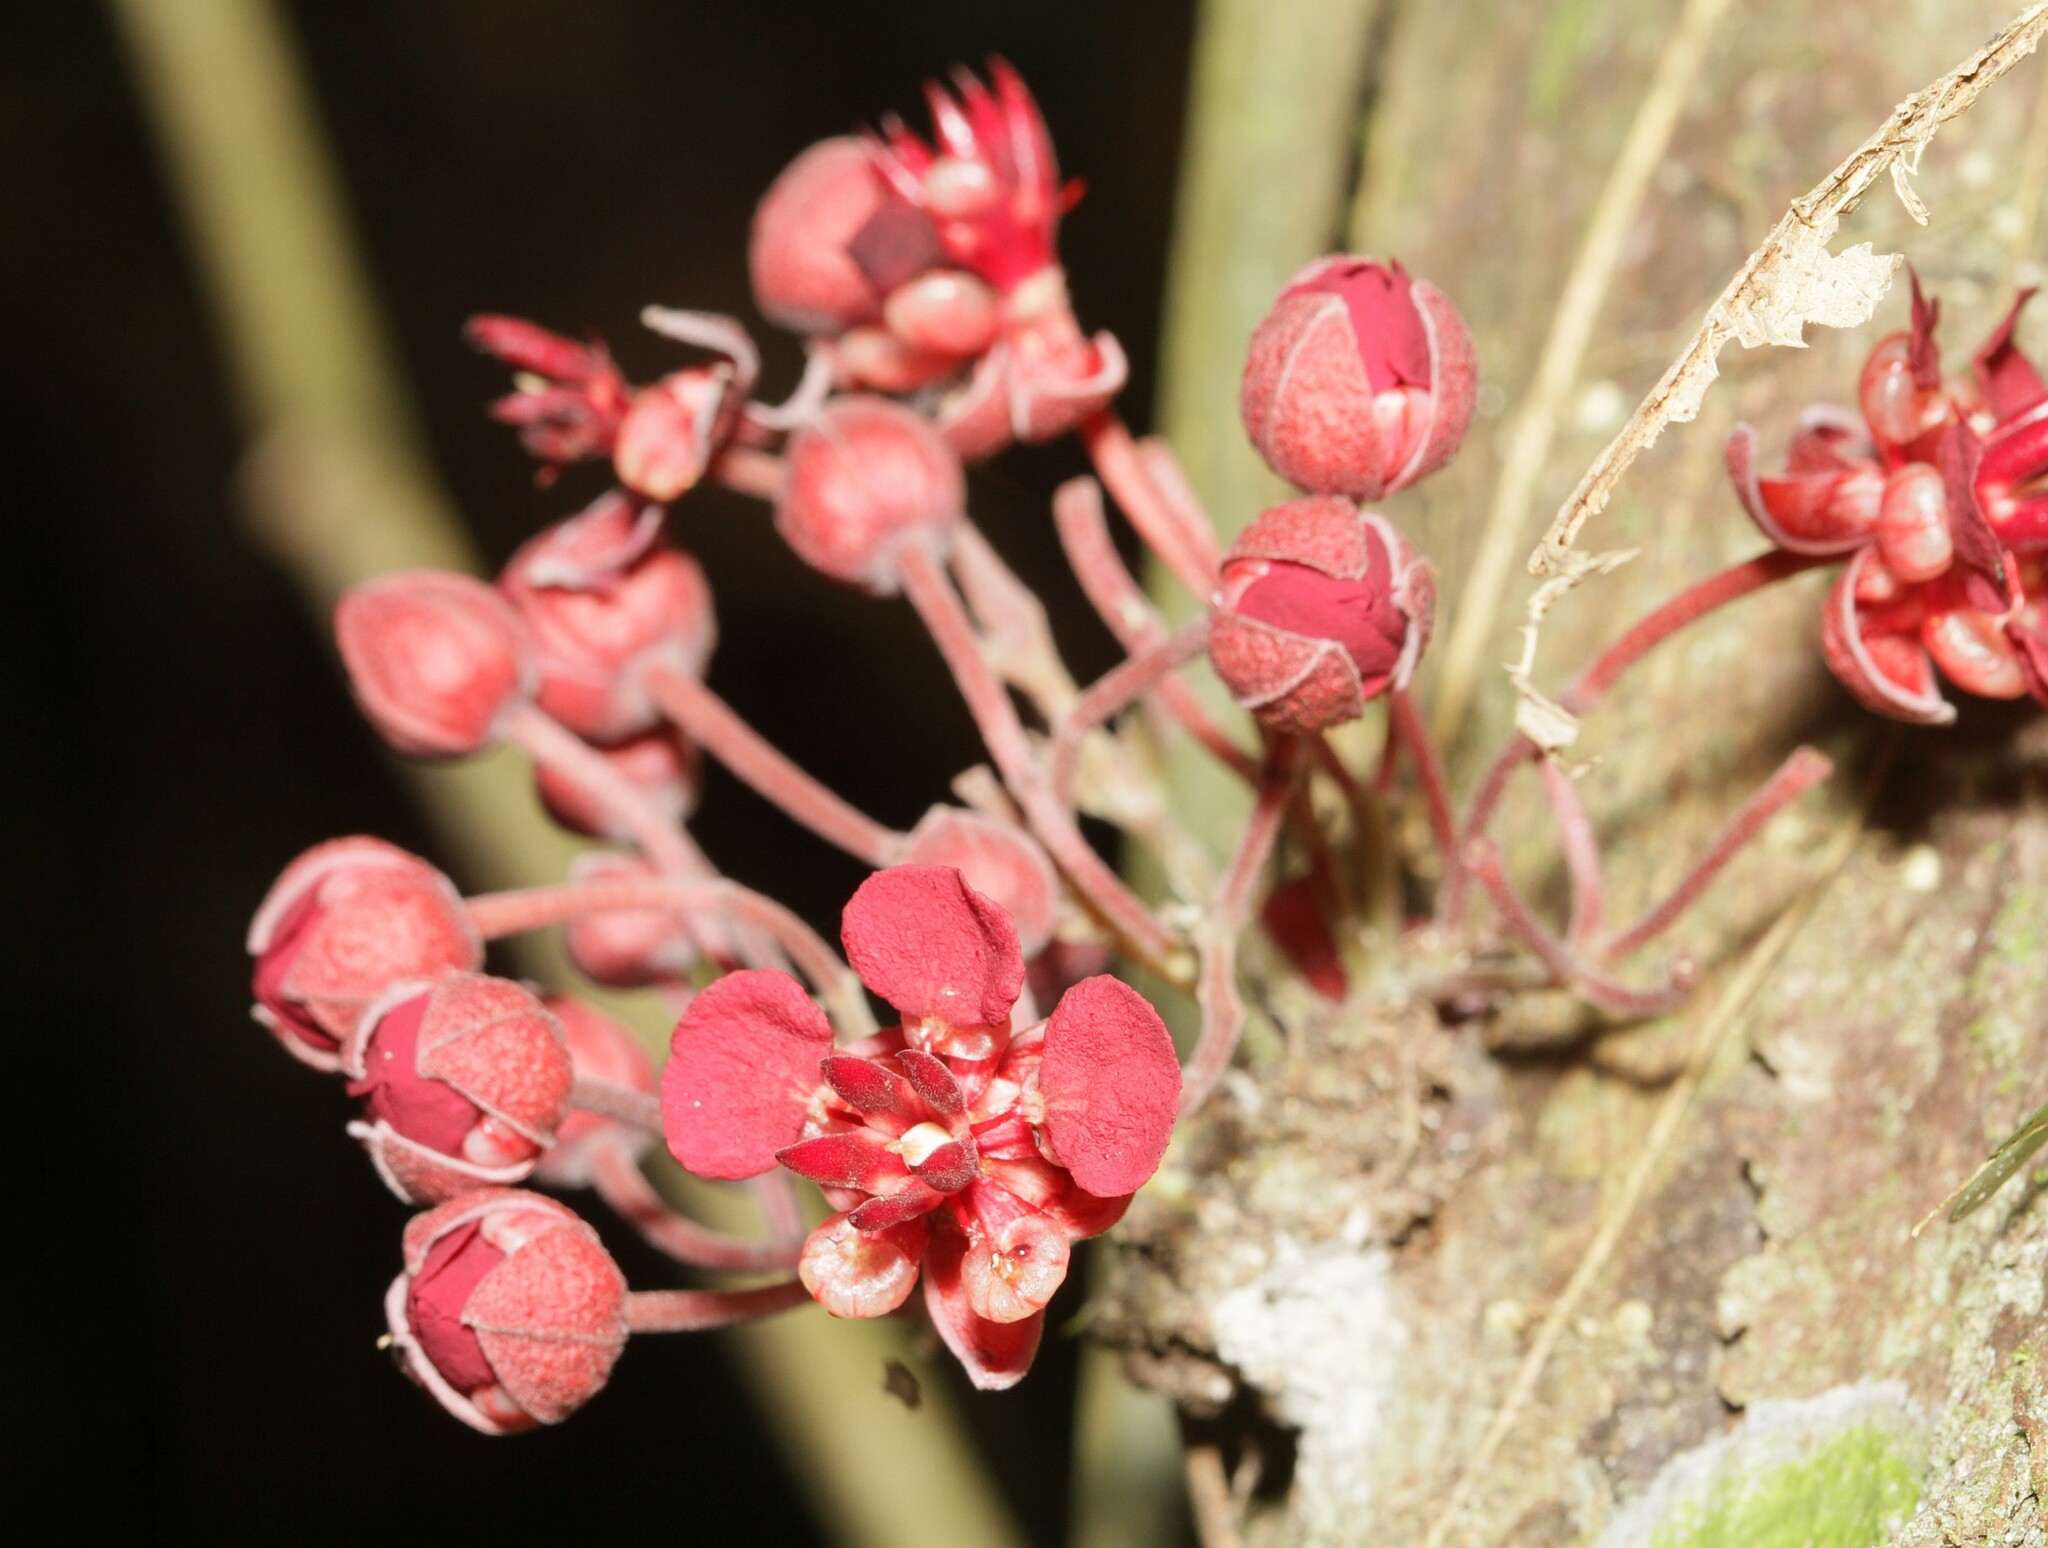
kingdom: Plantae
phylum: Tracheophyta
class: Magnoliopsida
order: Malvales
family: Malvaceae
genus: Theobroma
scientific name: Theobroma speciosum
